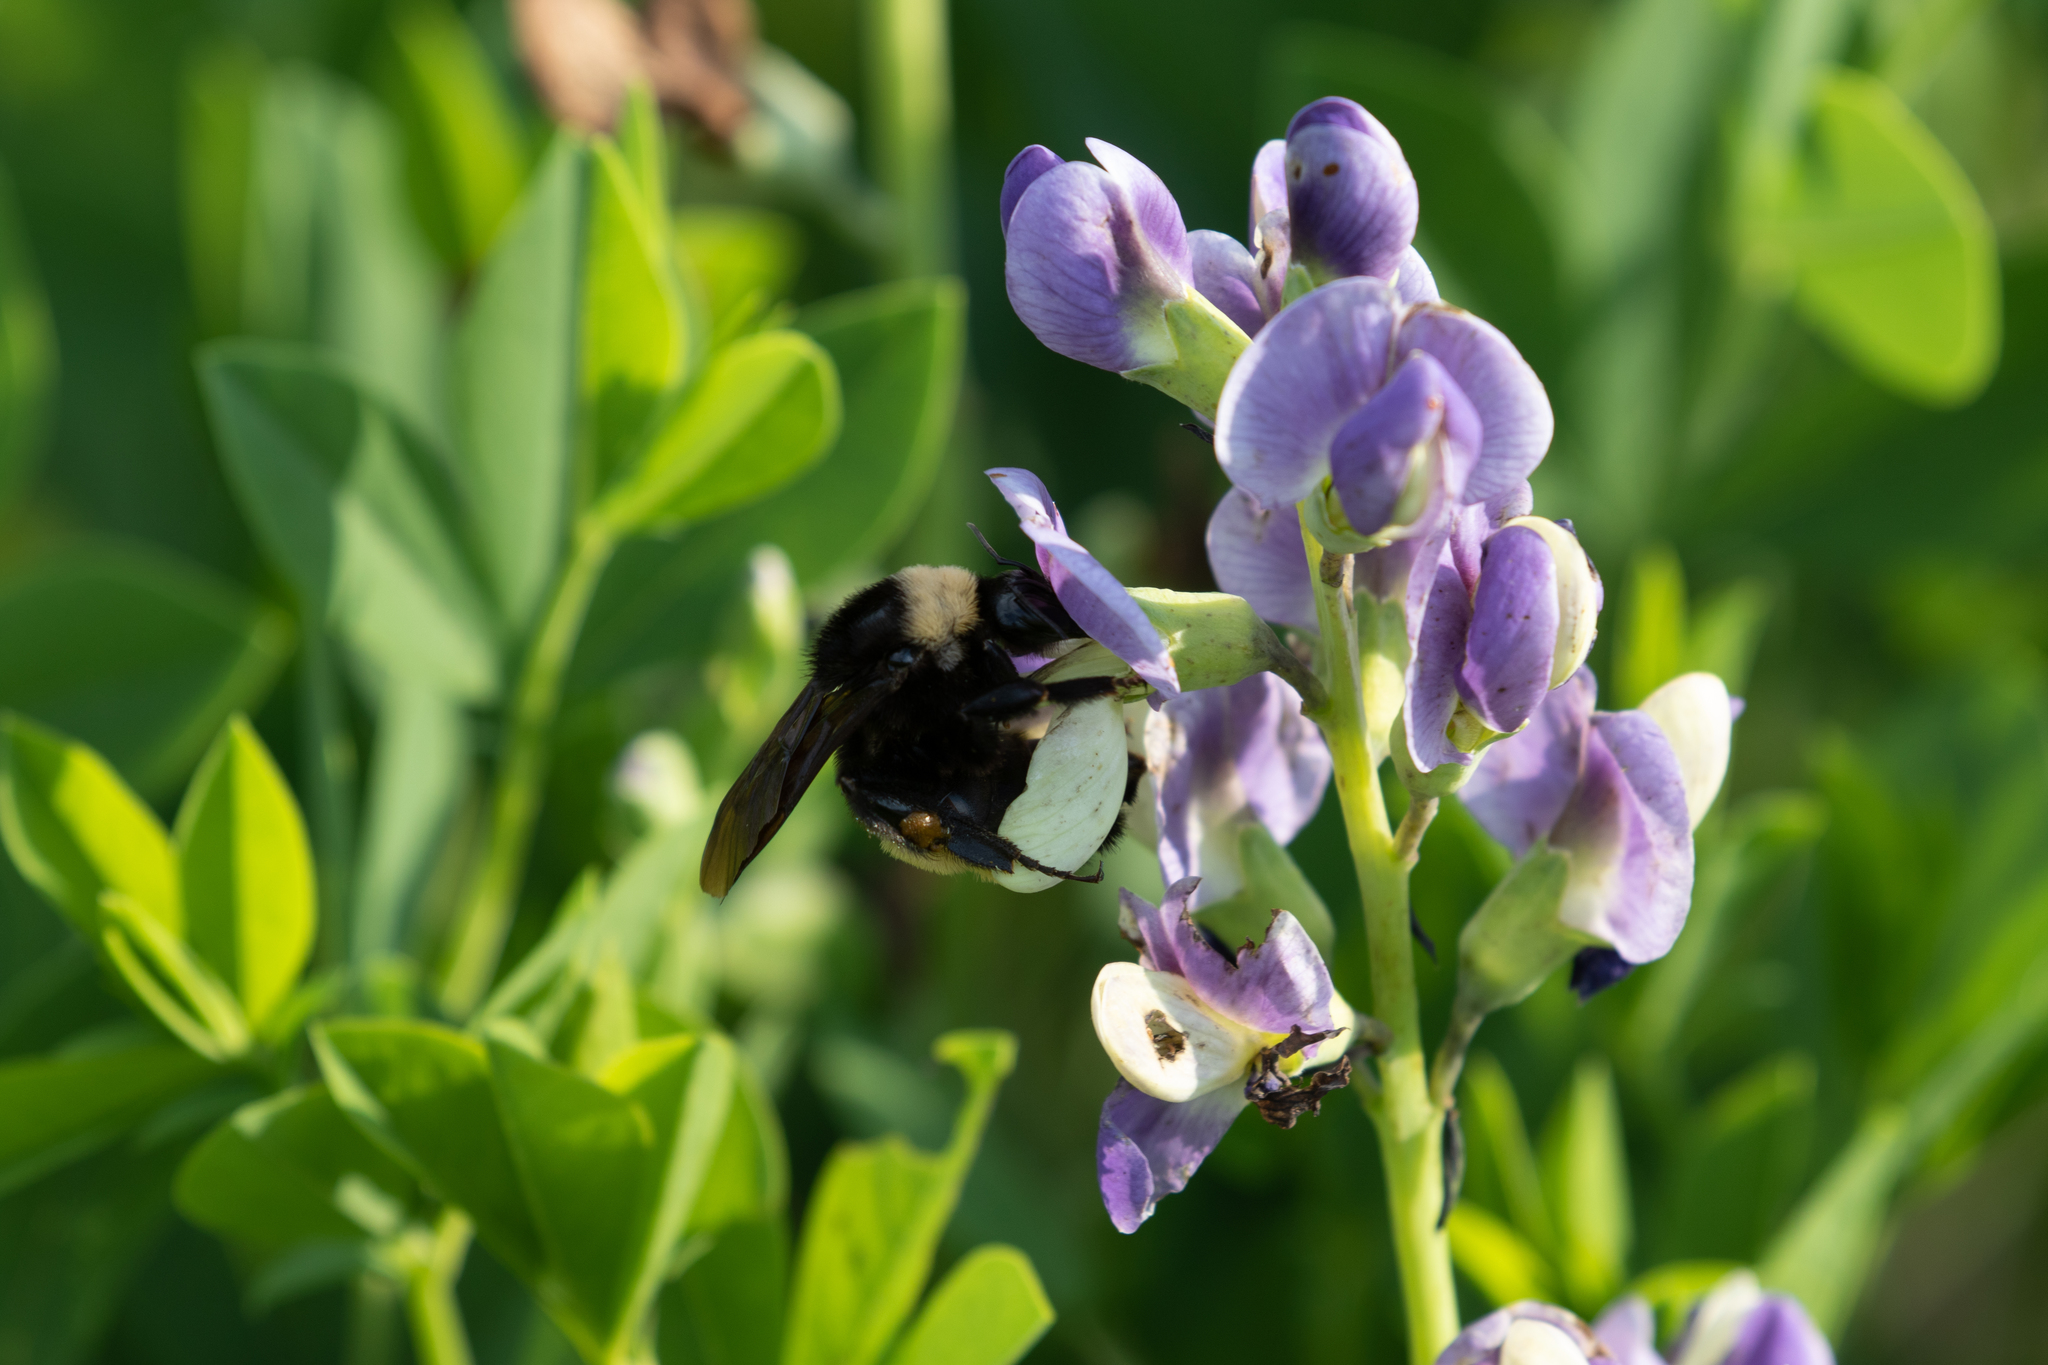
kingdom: Animalia
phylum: Arthropoda
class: Insecta
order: Hymenoptera
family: Apidae
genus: Bombus
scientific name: Bombus pensylvanicus
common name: Bumble bee
